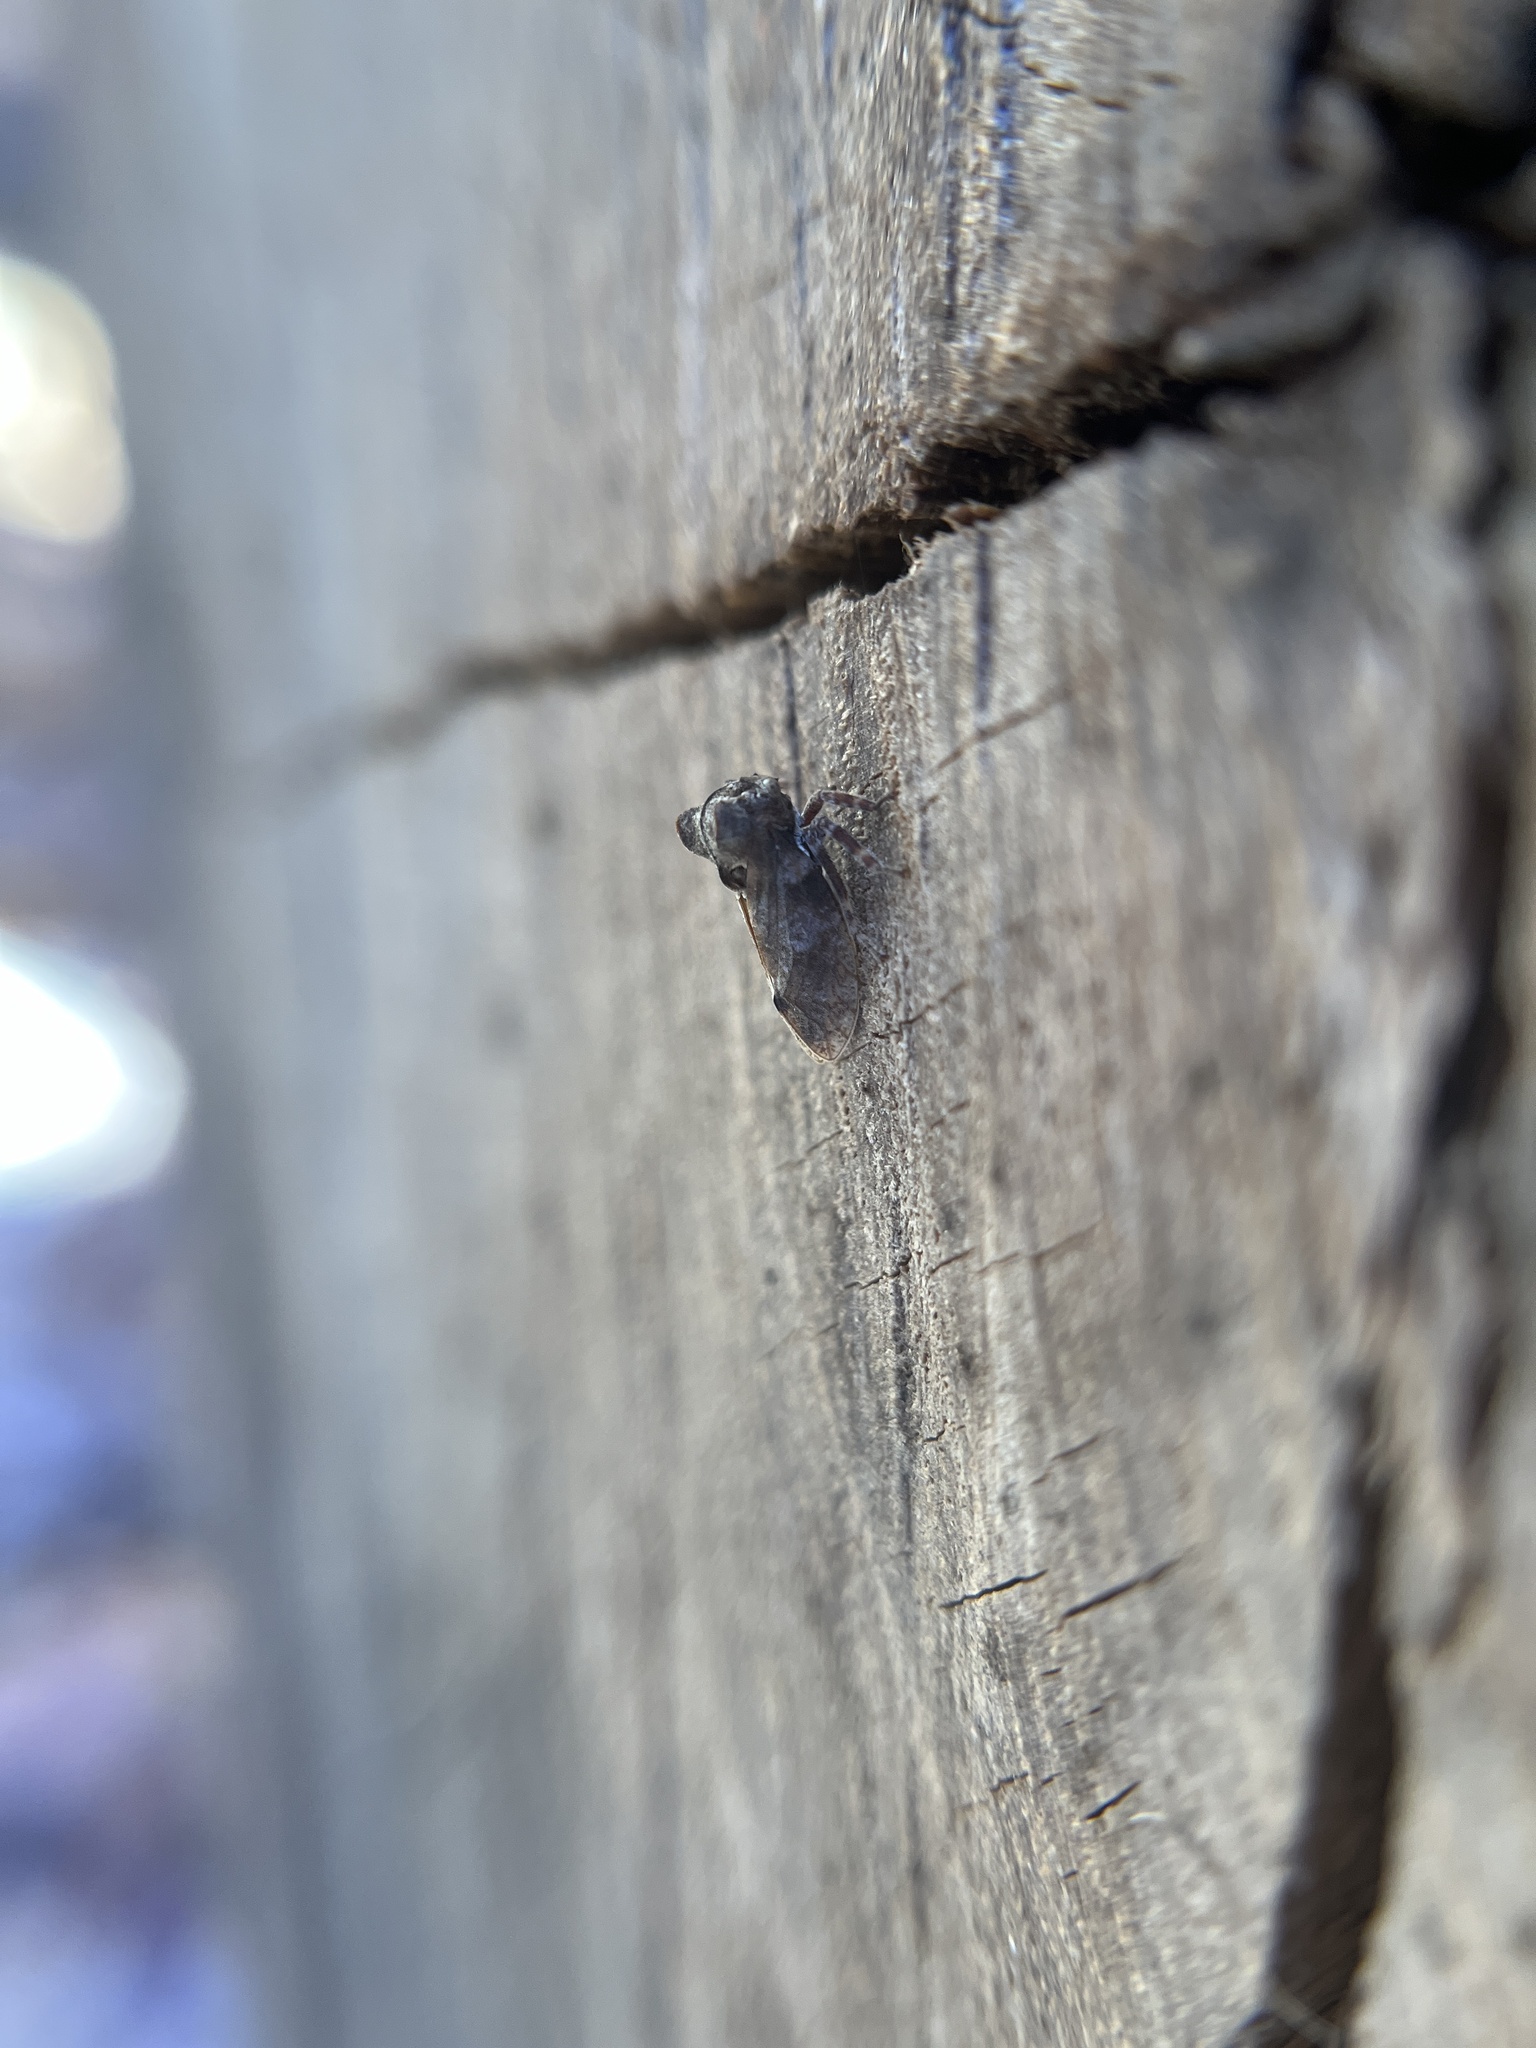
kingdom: Animalia
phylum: Arthropoda
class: Insecta
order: Hemiptera
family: Membracidae
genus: Microcentrus
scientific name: Microcentrus perdita
